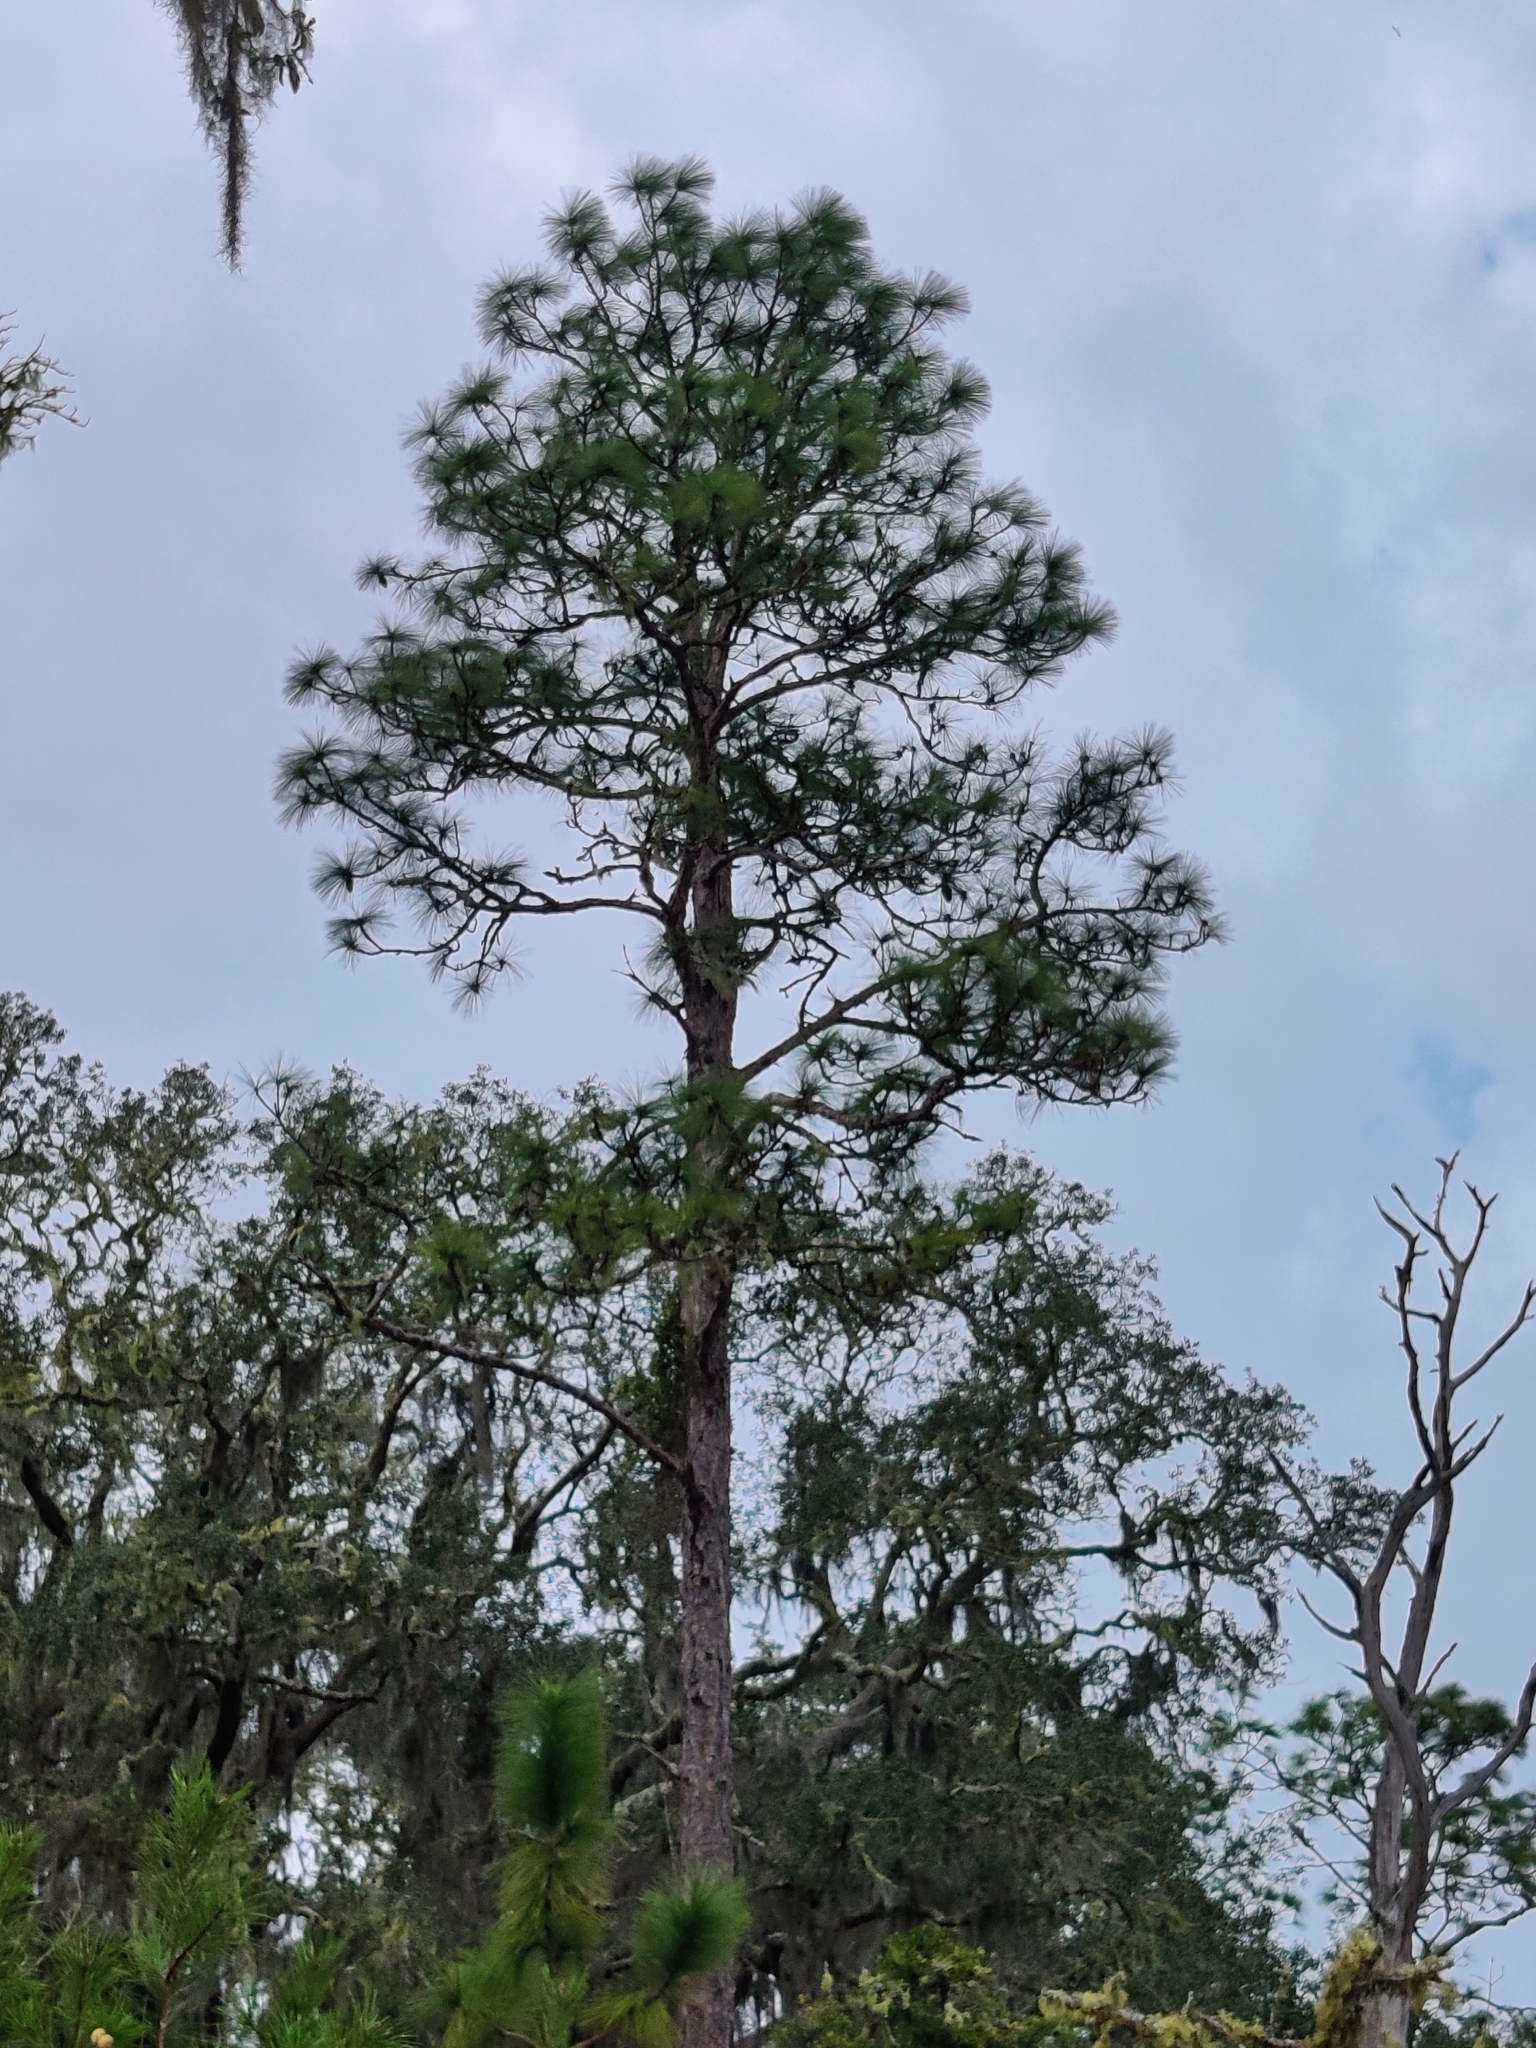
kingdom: Plantae
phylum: Tracheophyta
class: Pinopsida
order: Pinales
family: Pinaceae
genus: Pinus
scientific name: Pinus palustris
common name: Longleaf pine
